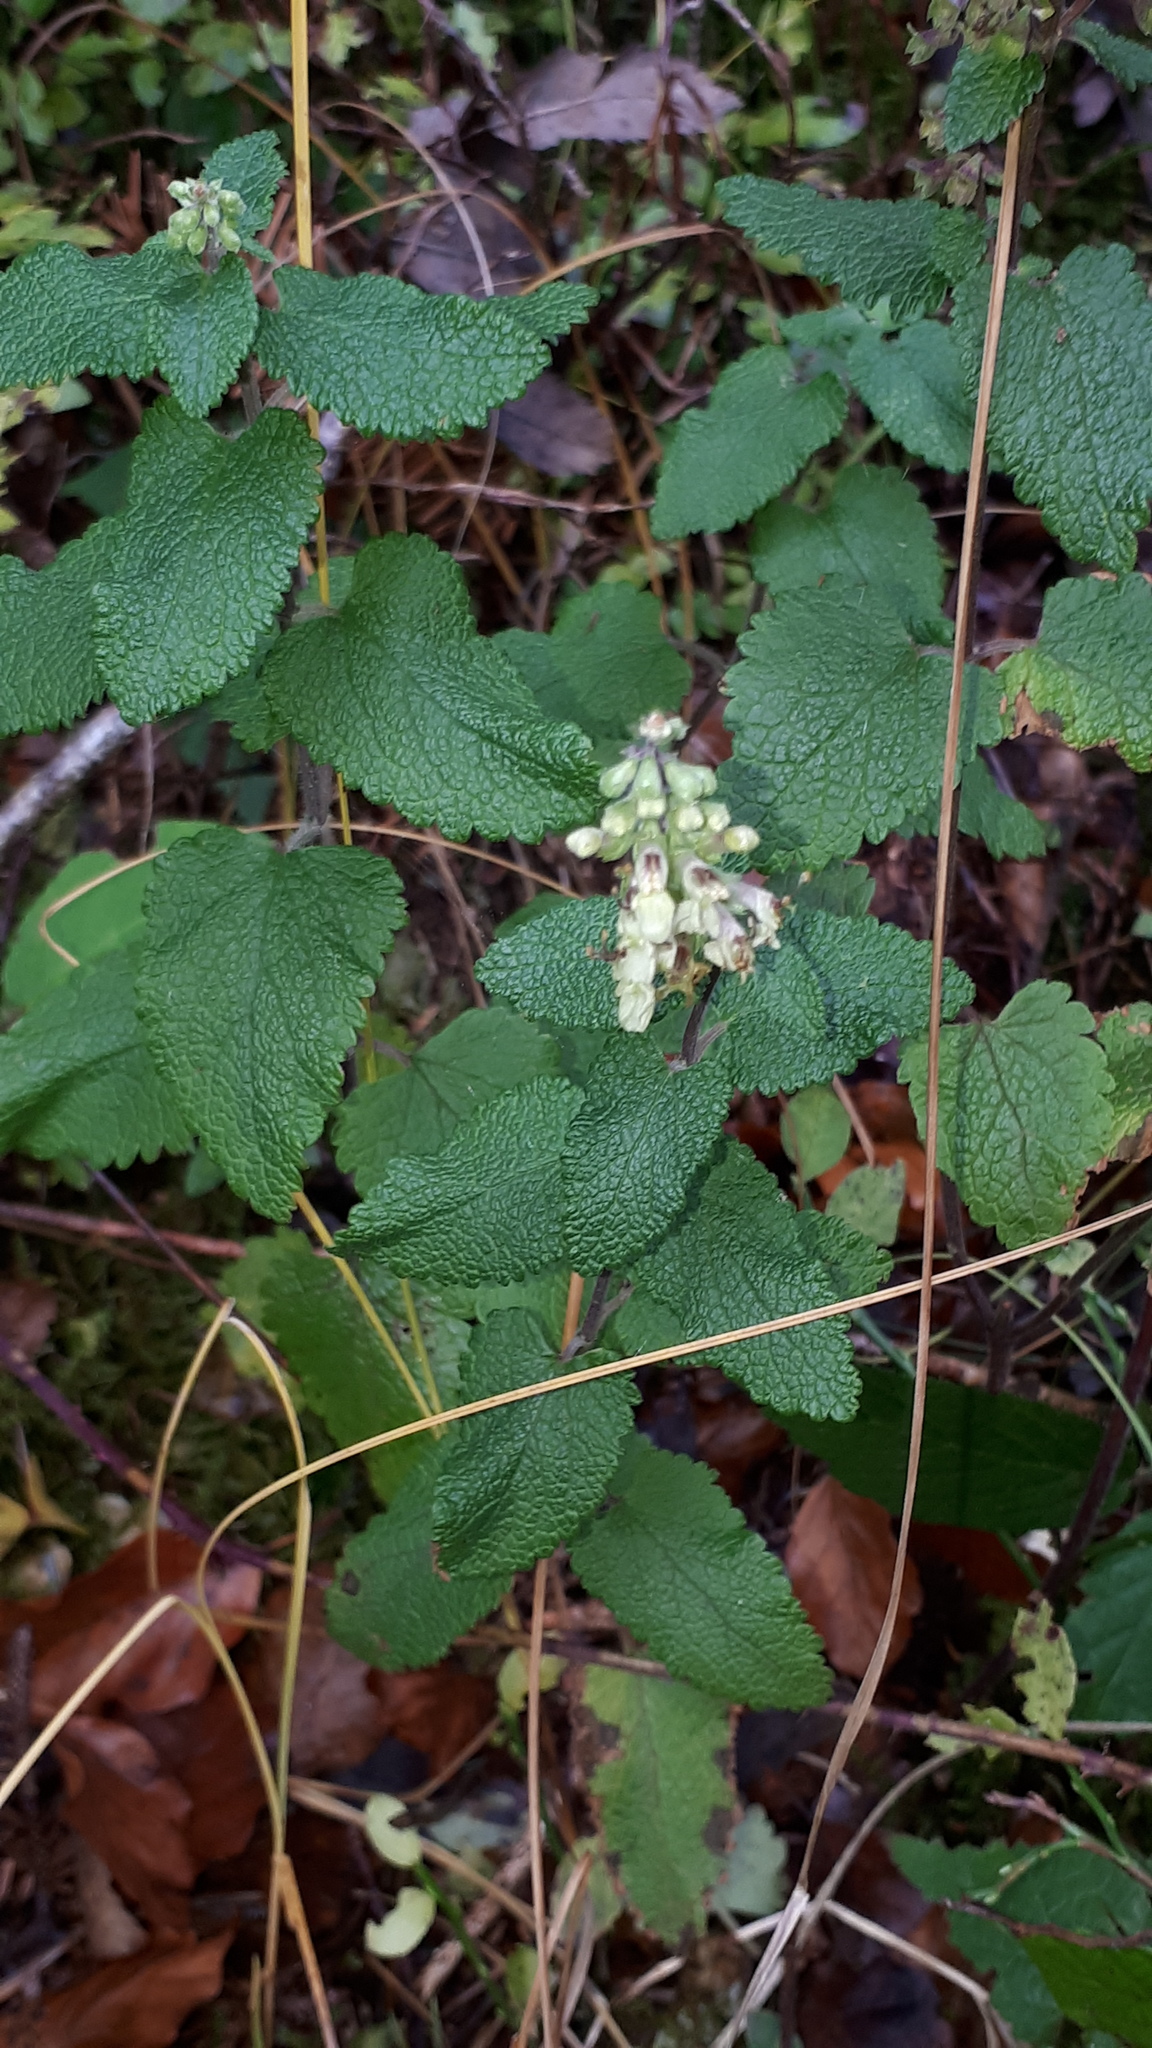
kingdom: Plantae
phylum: Tracheophyta
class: Magnoliopsida
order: Lamiales
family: Lamiaceae
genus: Teucrium
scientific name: Teucrium scorodonia
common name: Woodland germander
